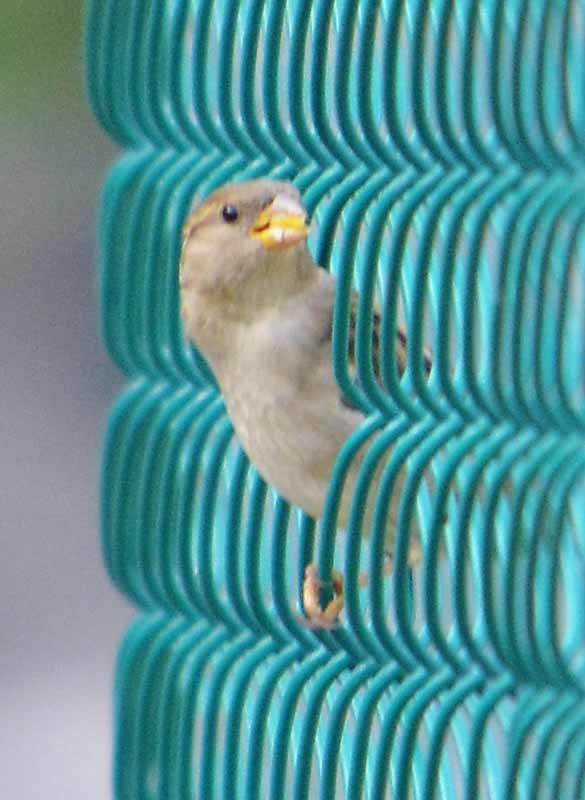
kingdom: Animalia
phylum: Chordata
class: Aves
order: Passeriformes
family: Passeridae
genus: Passer
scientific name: Passer domesticus
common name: House sparrow
